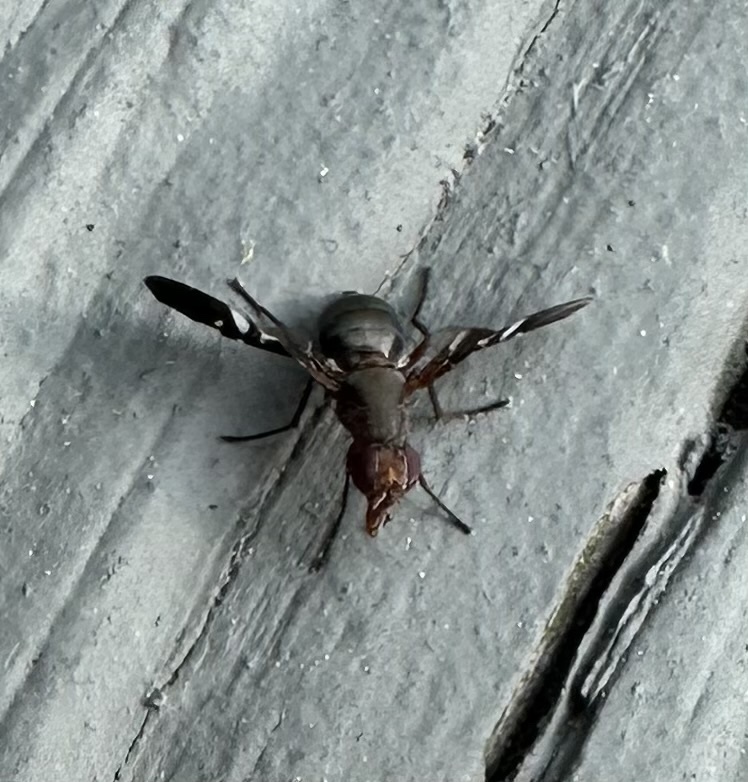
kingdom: Animalia
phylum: Arthropoda
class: Insecta
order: Diptera
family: Ulidiidae
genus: Delphinia
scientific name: Delphinia picta
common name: Common picture-winged fly
